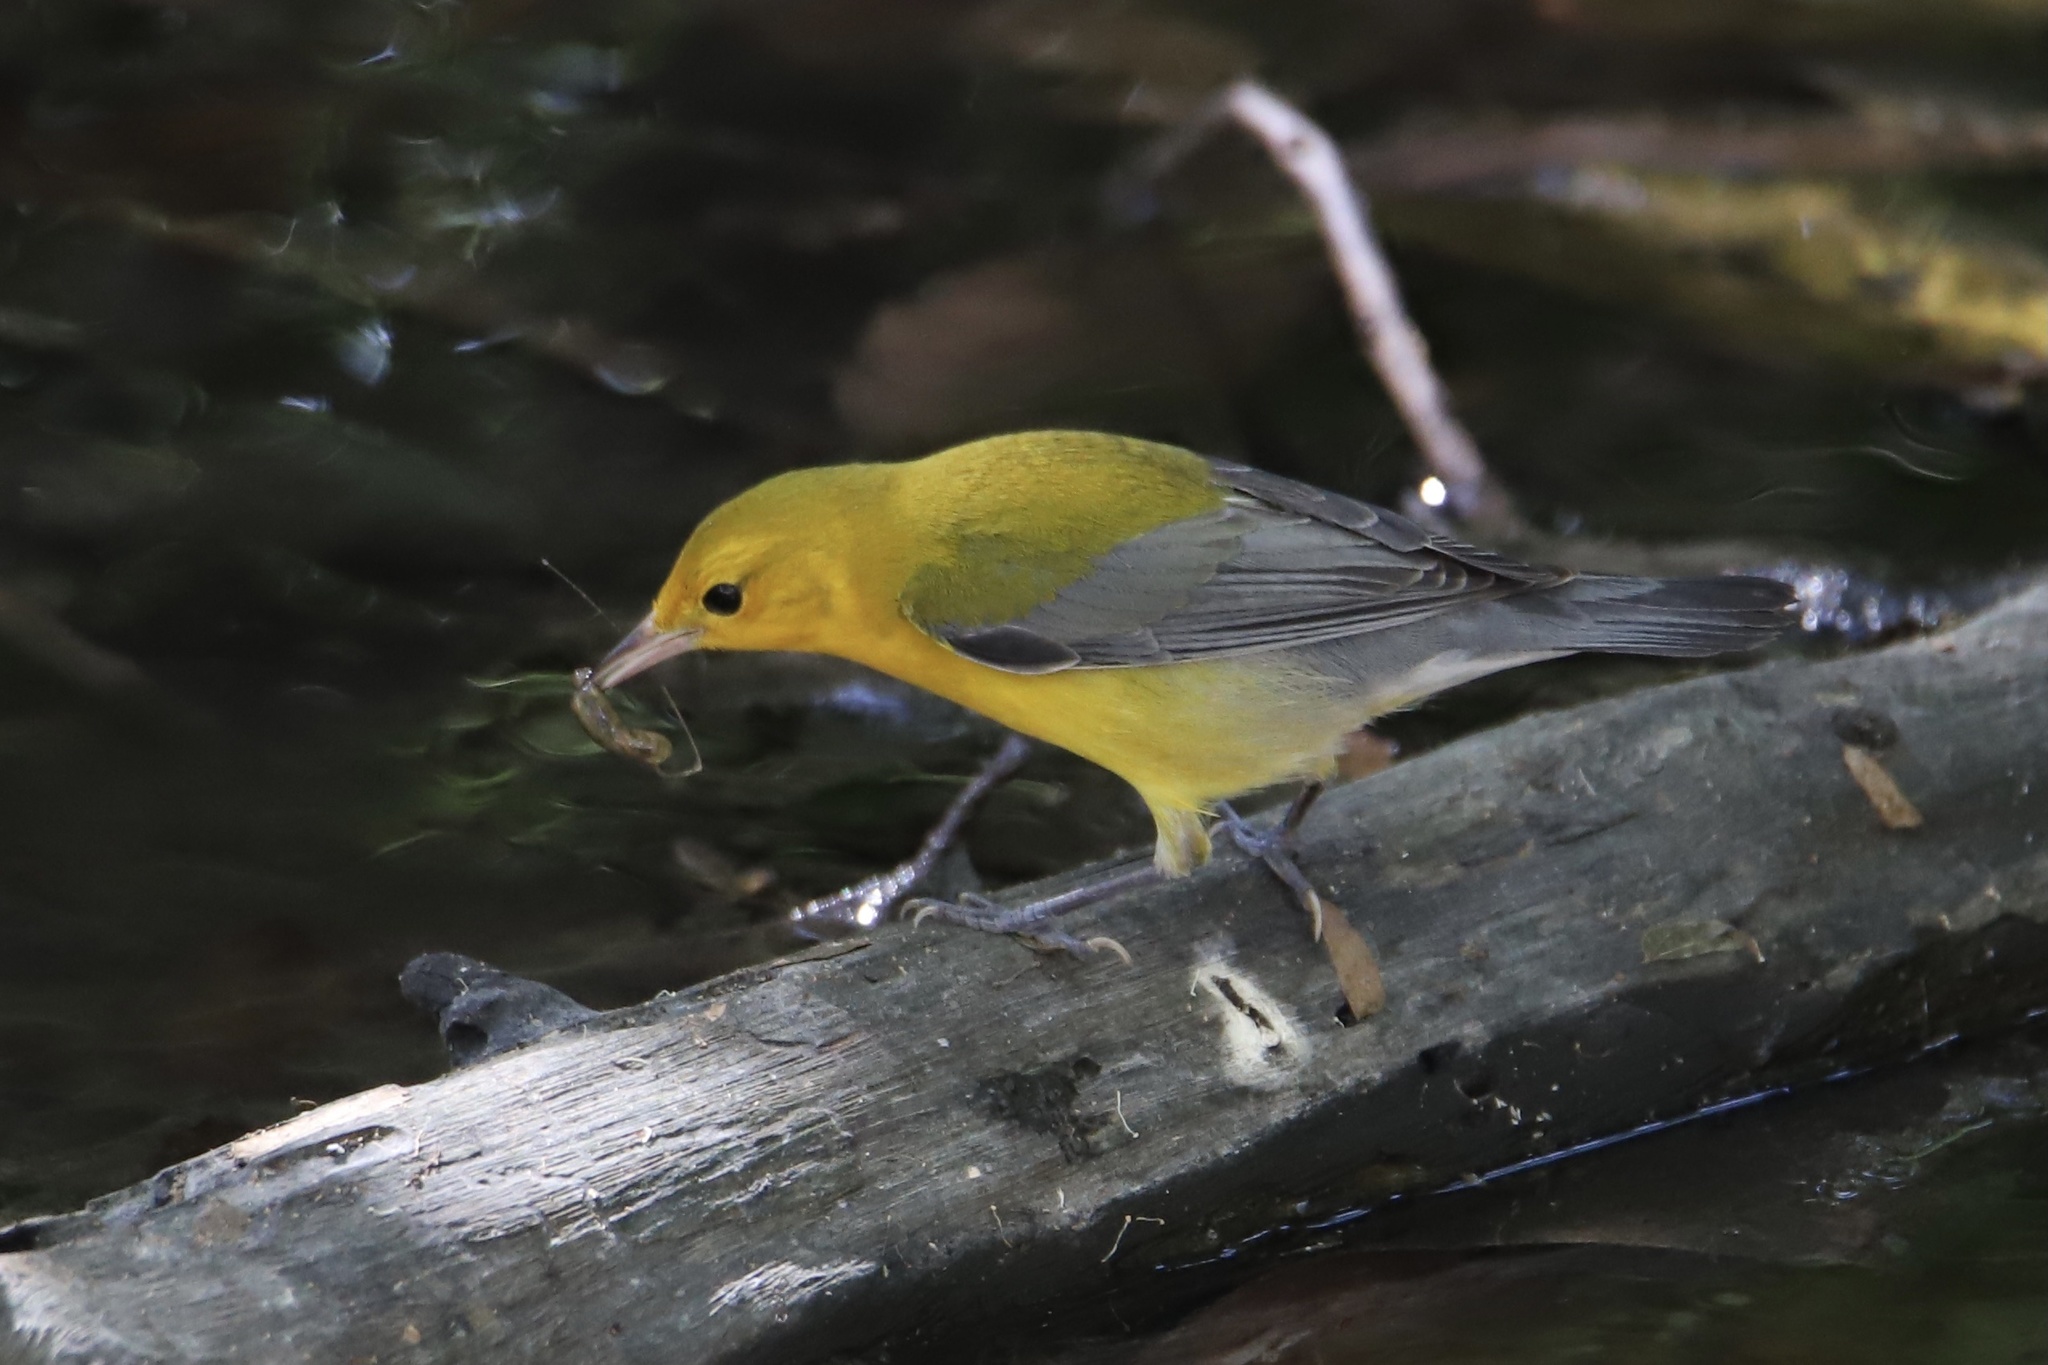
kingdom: Animalia
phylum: Chordata
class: Aves
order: Passeriformes
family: Parulidae
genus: Protonotaria
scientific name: Protonotaria citrea
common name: Prothonotary warbler
